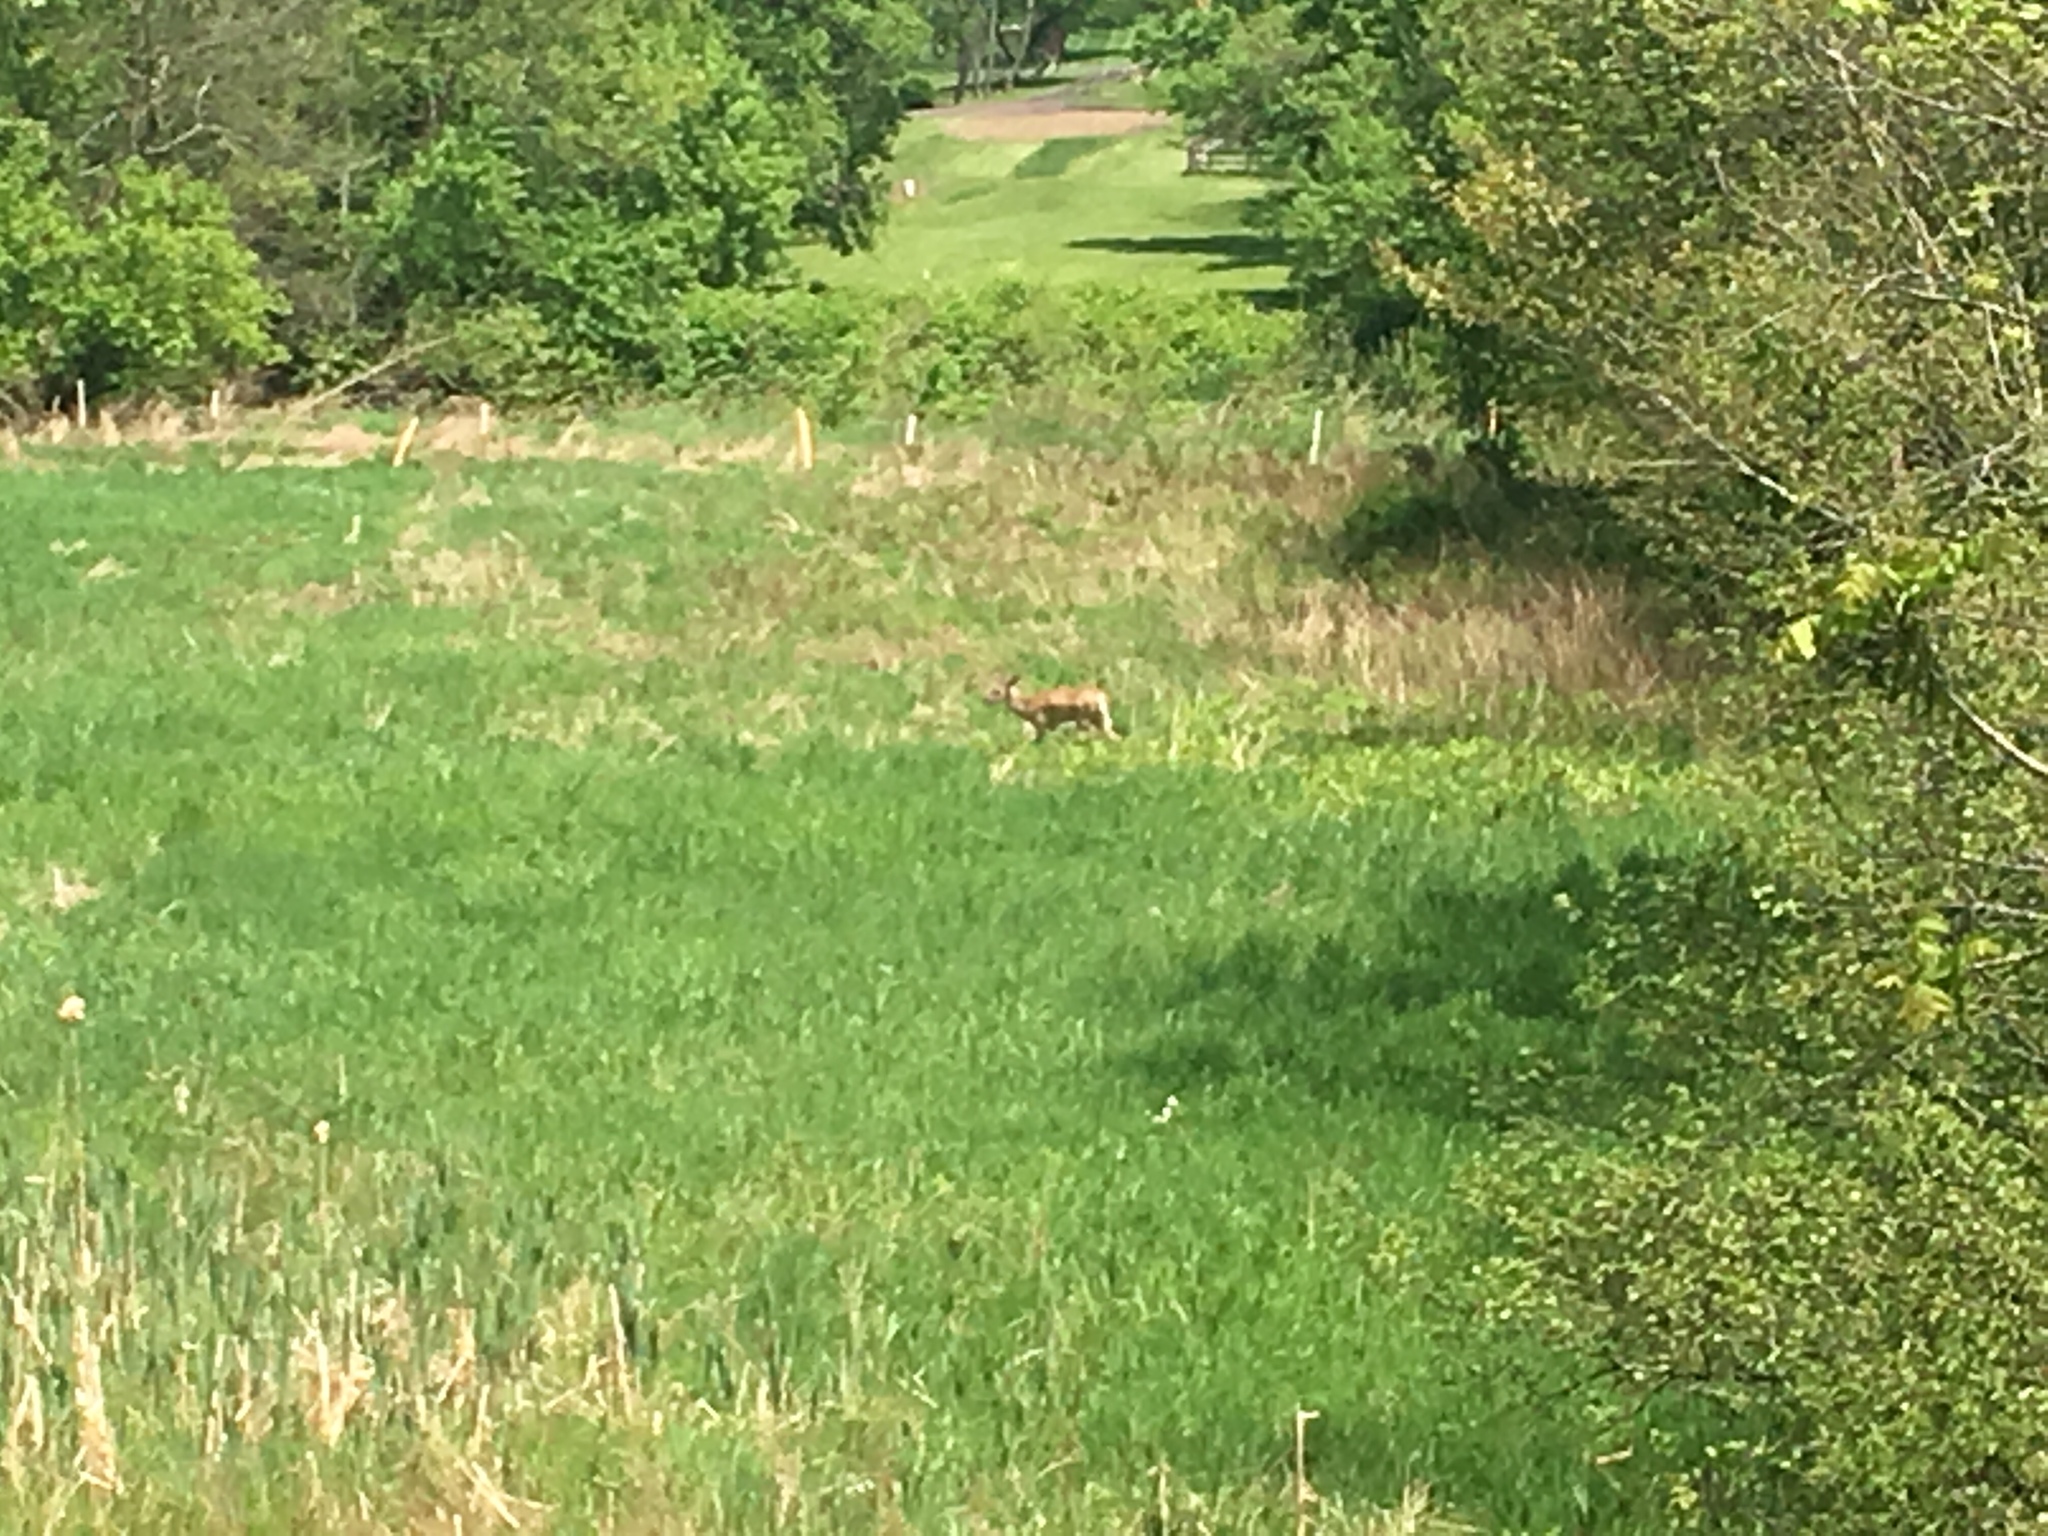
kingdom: Animalia
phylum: Chordata
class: Mammalia
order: Artiodactyla
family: Cervidae
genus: Odocoileus
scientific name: Odocoileus virginianus
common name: White-tailed deer
